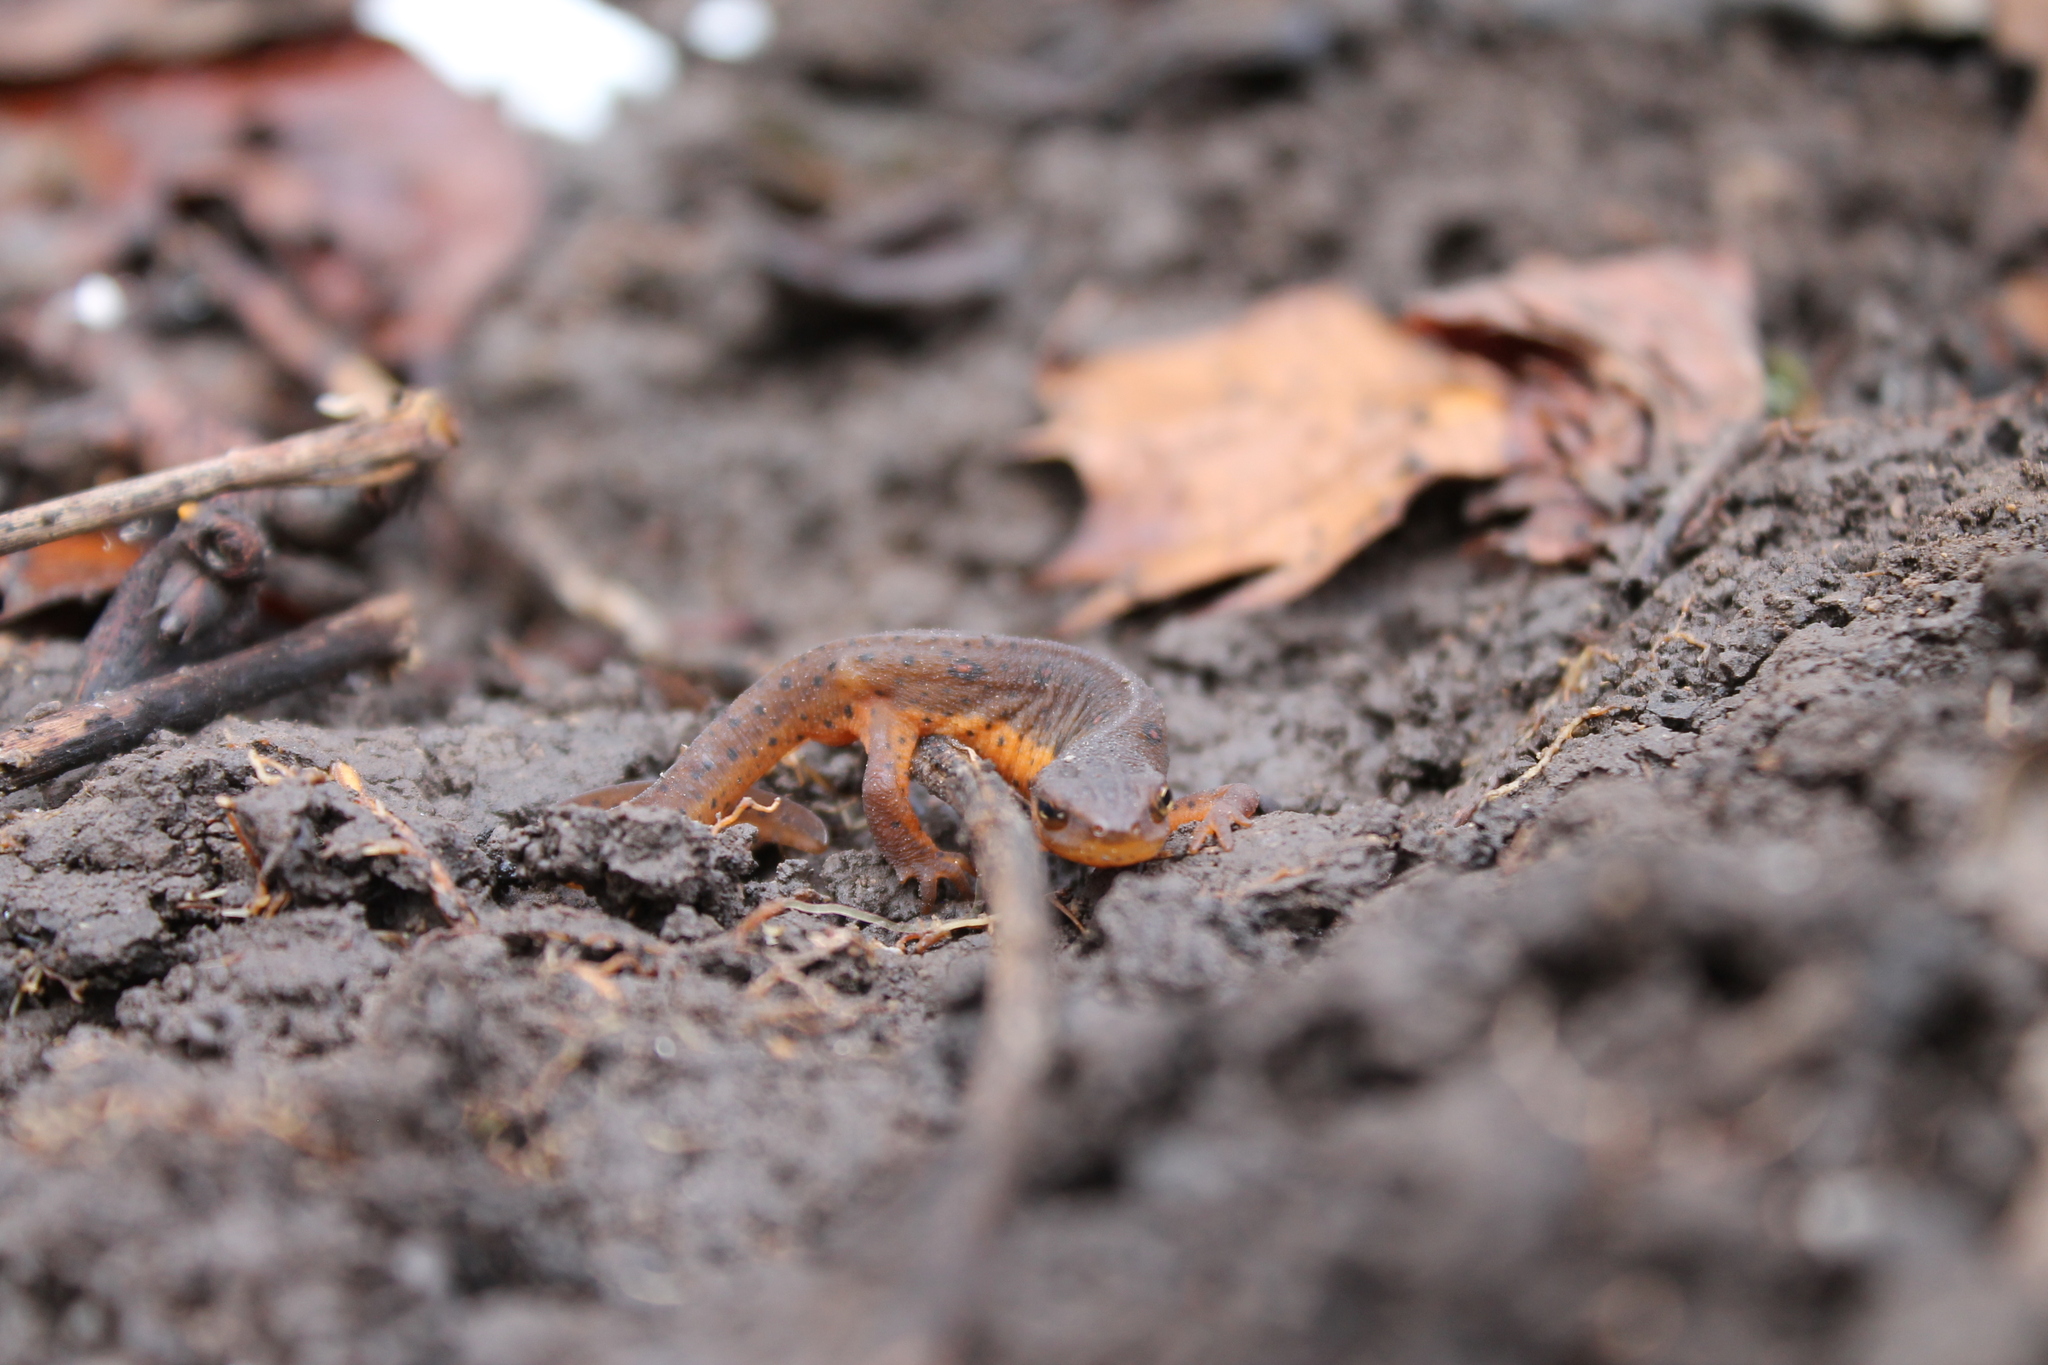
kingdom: Animalia
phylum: Chordata
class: Amphibia
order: Caudata
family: Salamandridae
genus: Notophthalmus
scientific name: Notophthalmus viridescens
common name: Eastern newt
